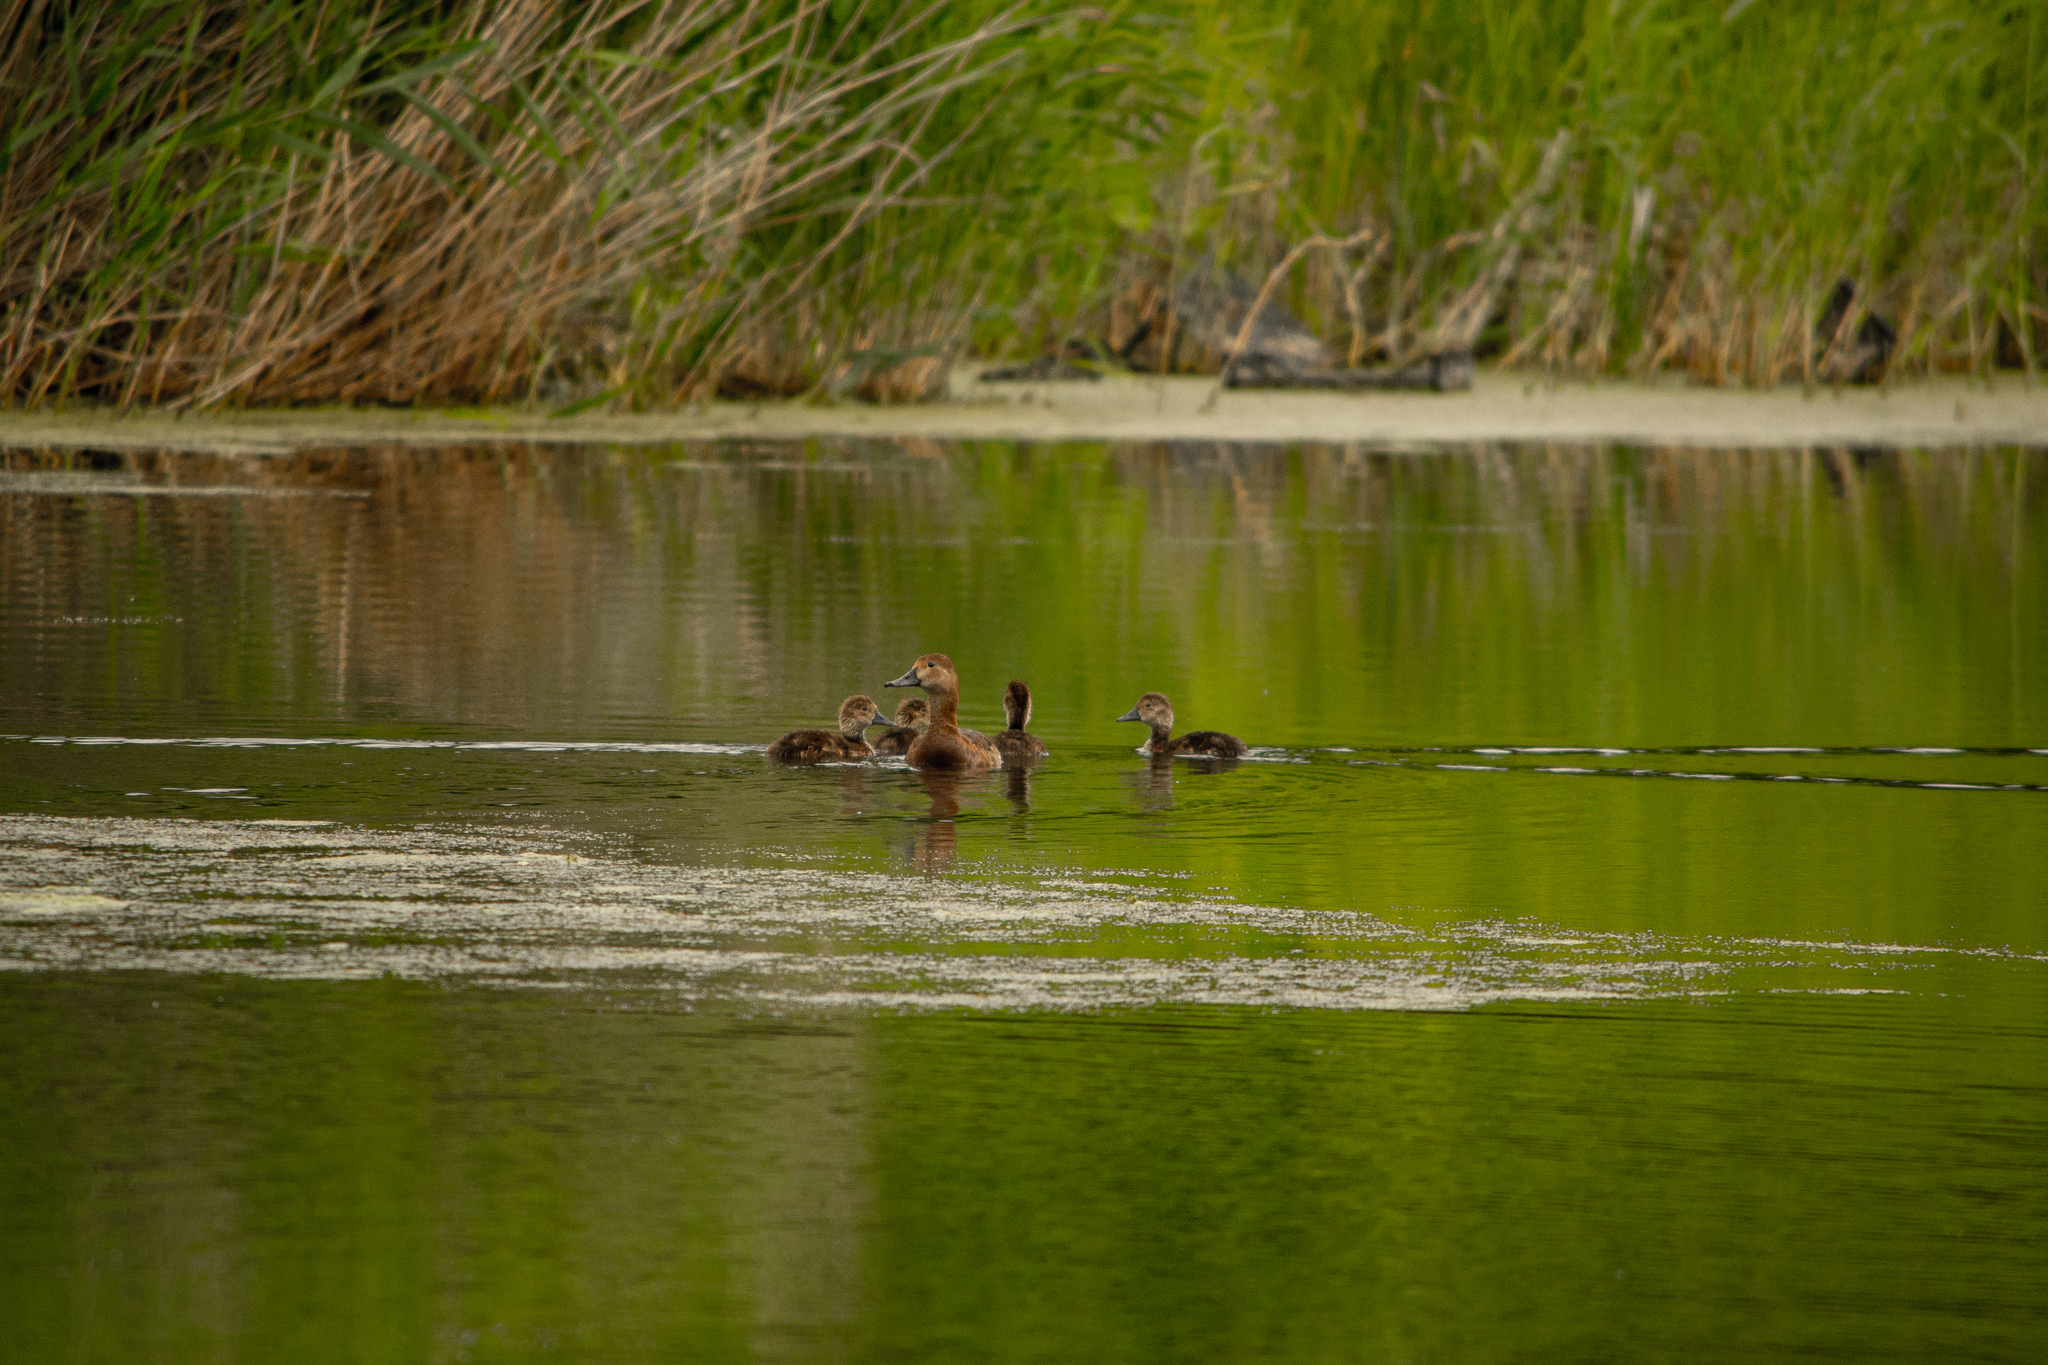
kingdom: Animalia
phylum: Chordata
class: Aves
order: Anseriformes
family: Anatidae
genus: Aythya
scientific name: Aythya ferina
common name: Common pochard
